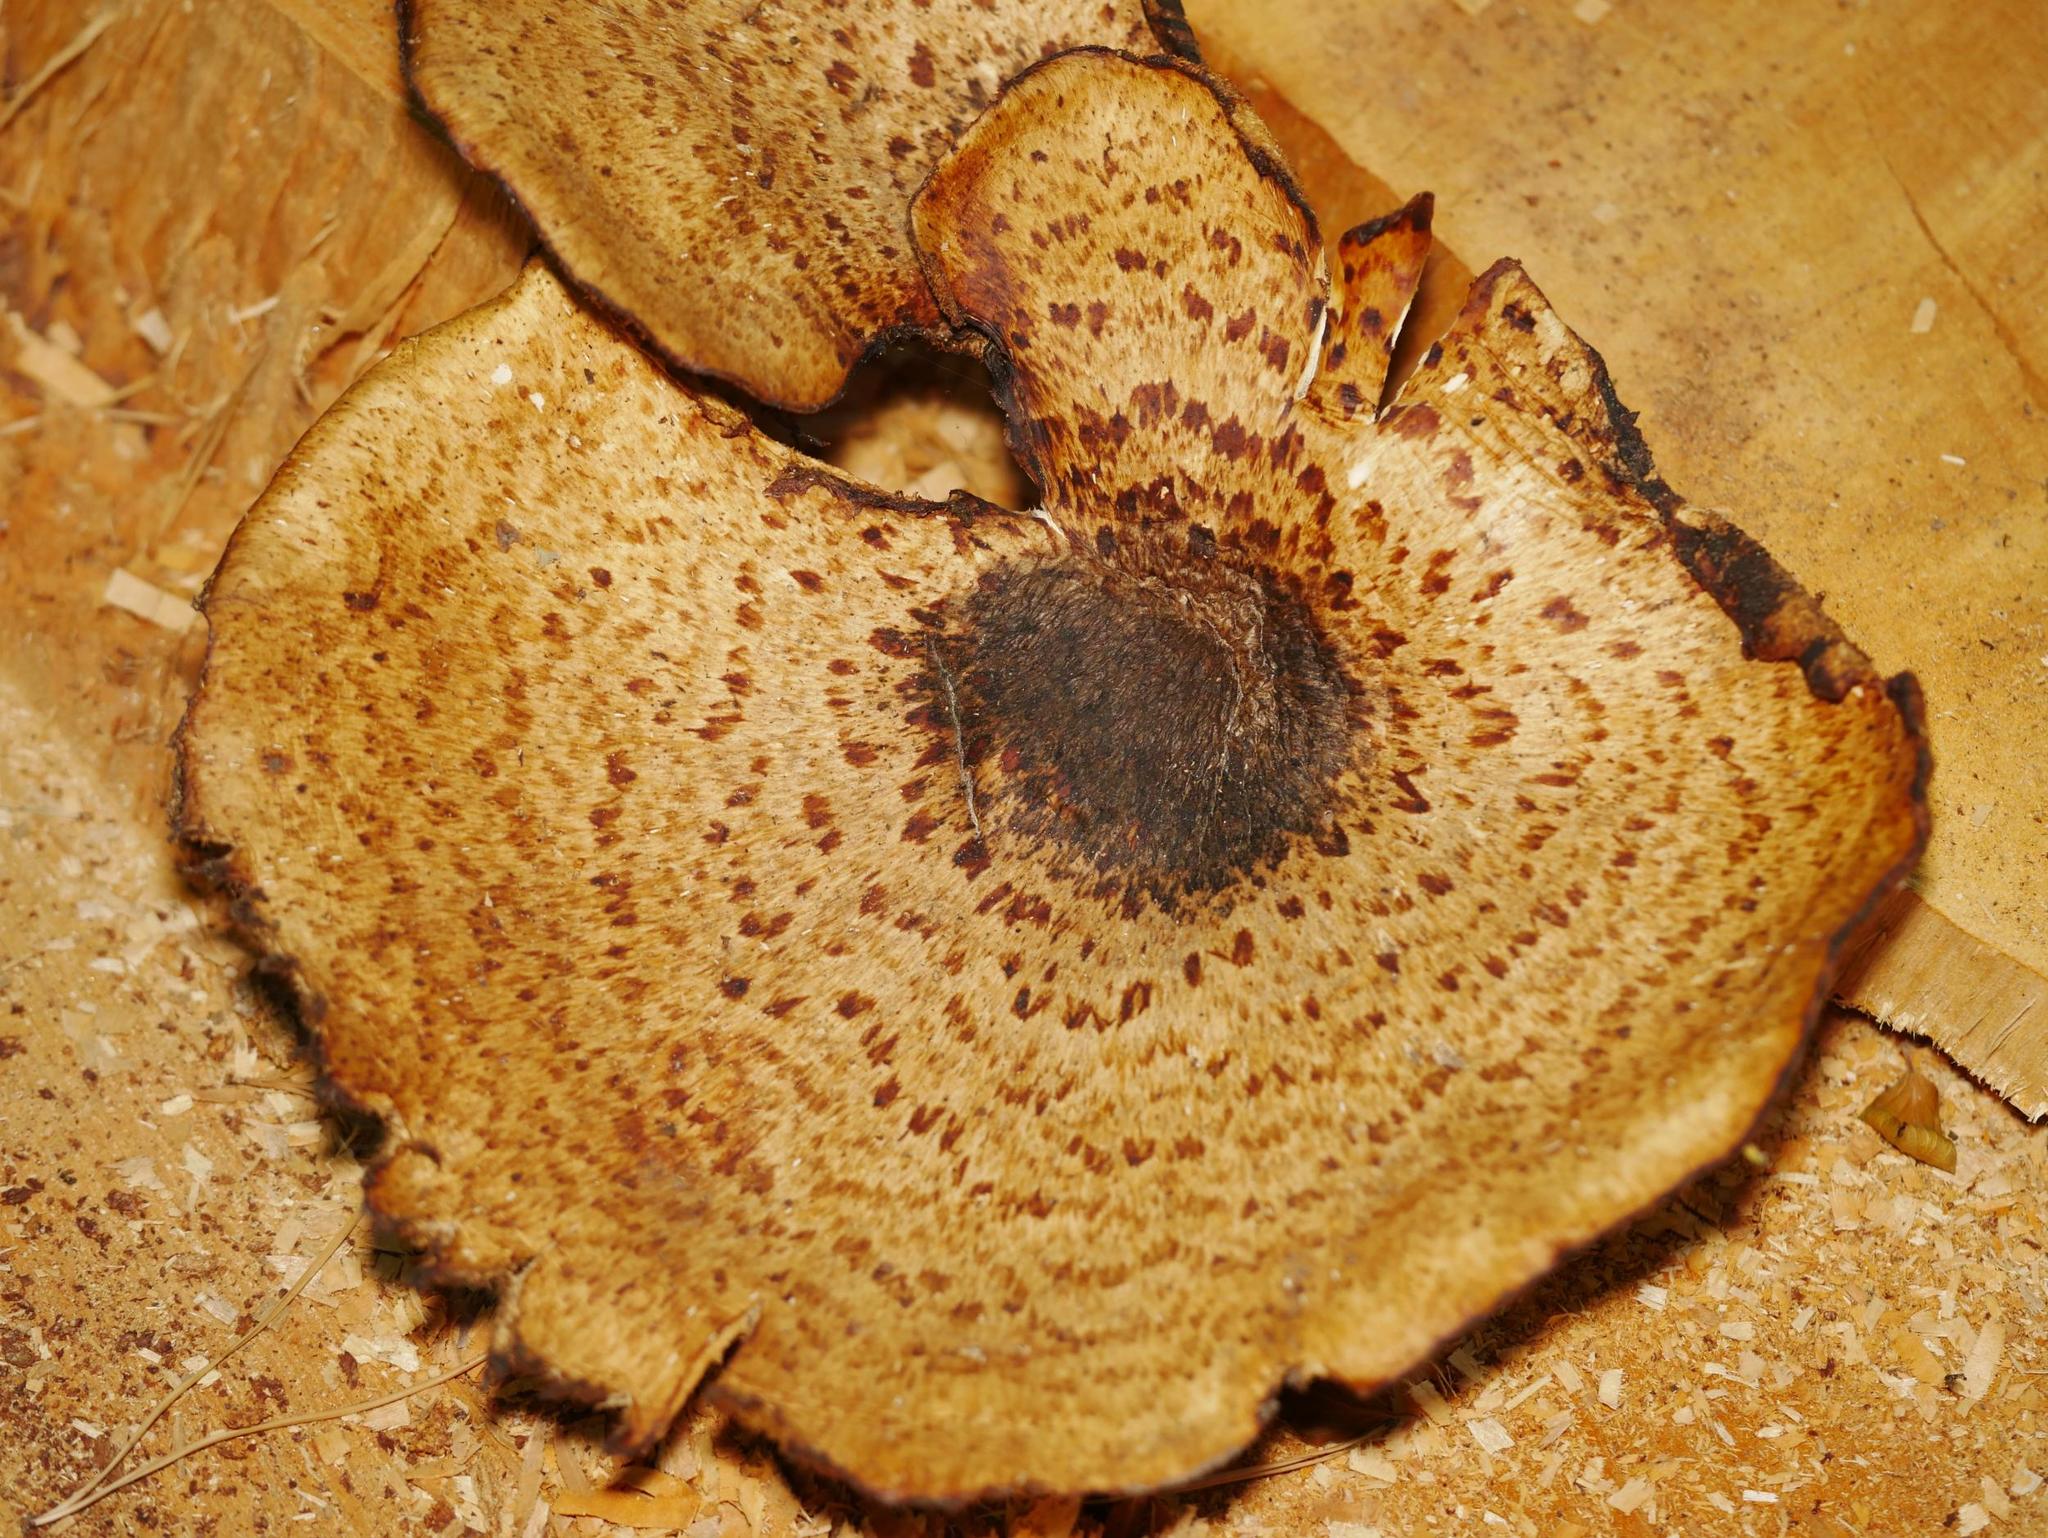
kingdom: Fungi
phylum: Basidiomycota
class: Agaricomycetes
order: Polyporales
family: Polyporaceae
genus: Cerioporus
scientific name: Cerioporus squamosus
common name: Dryad's saddle
